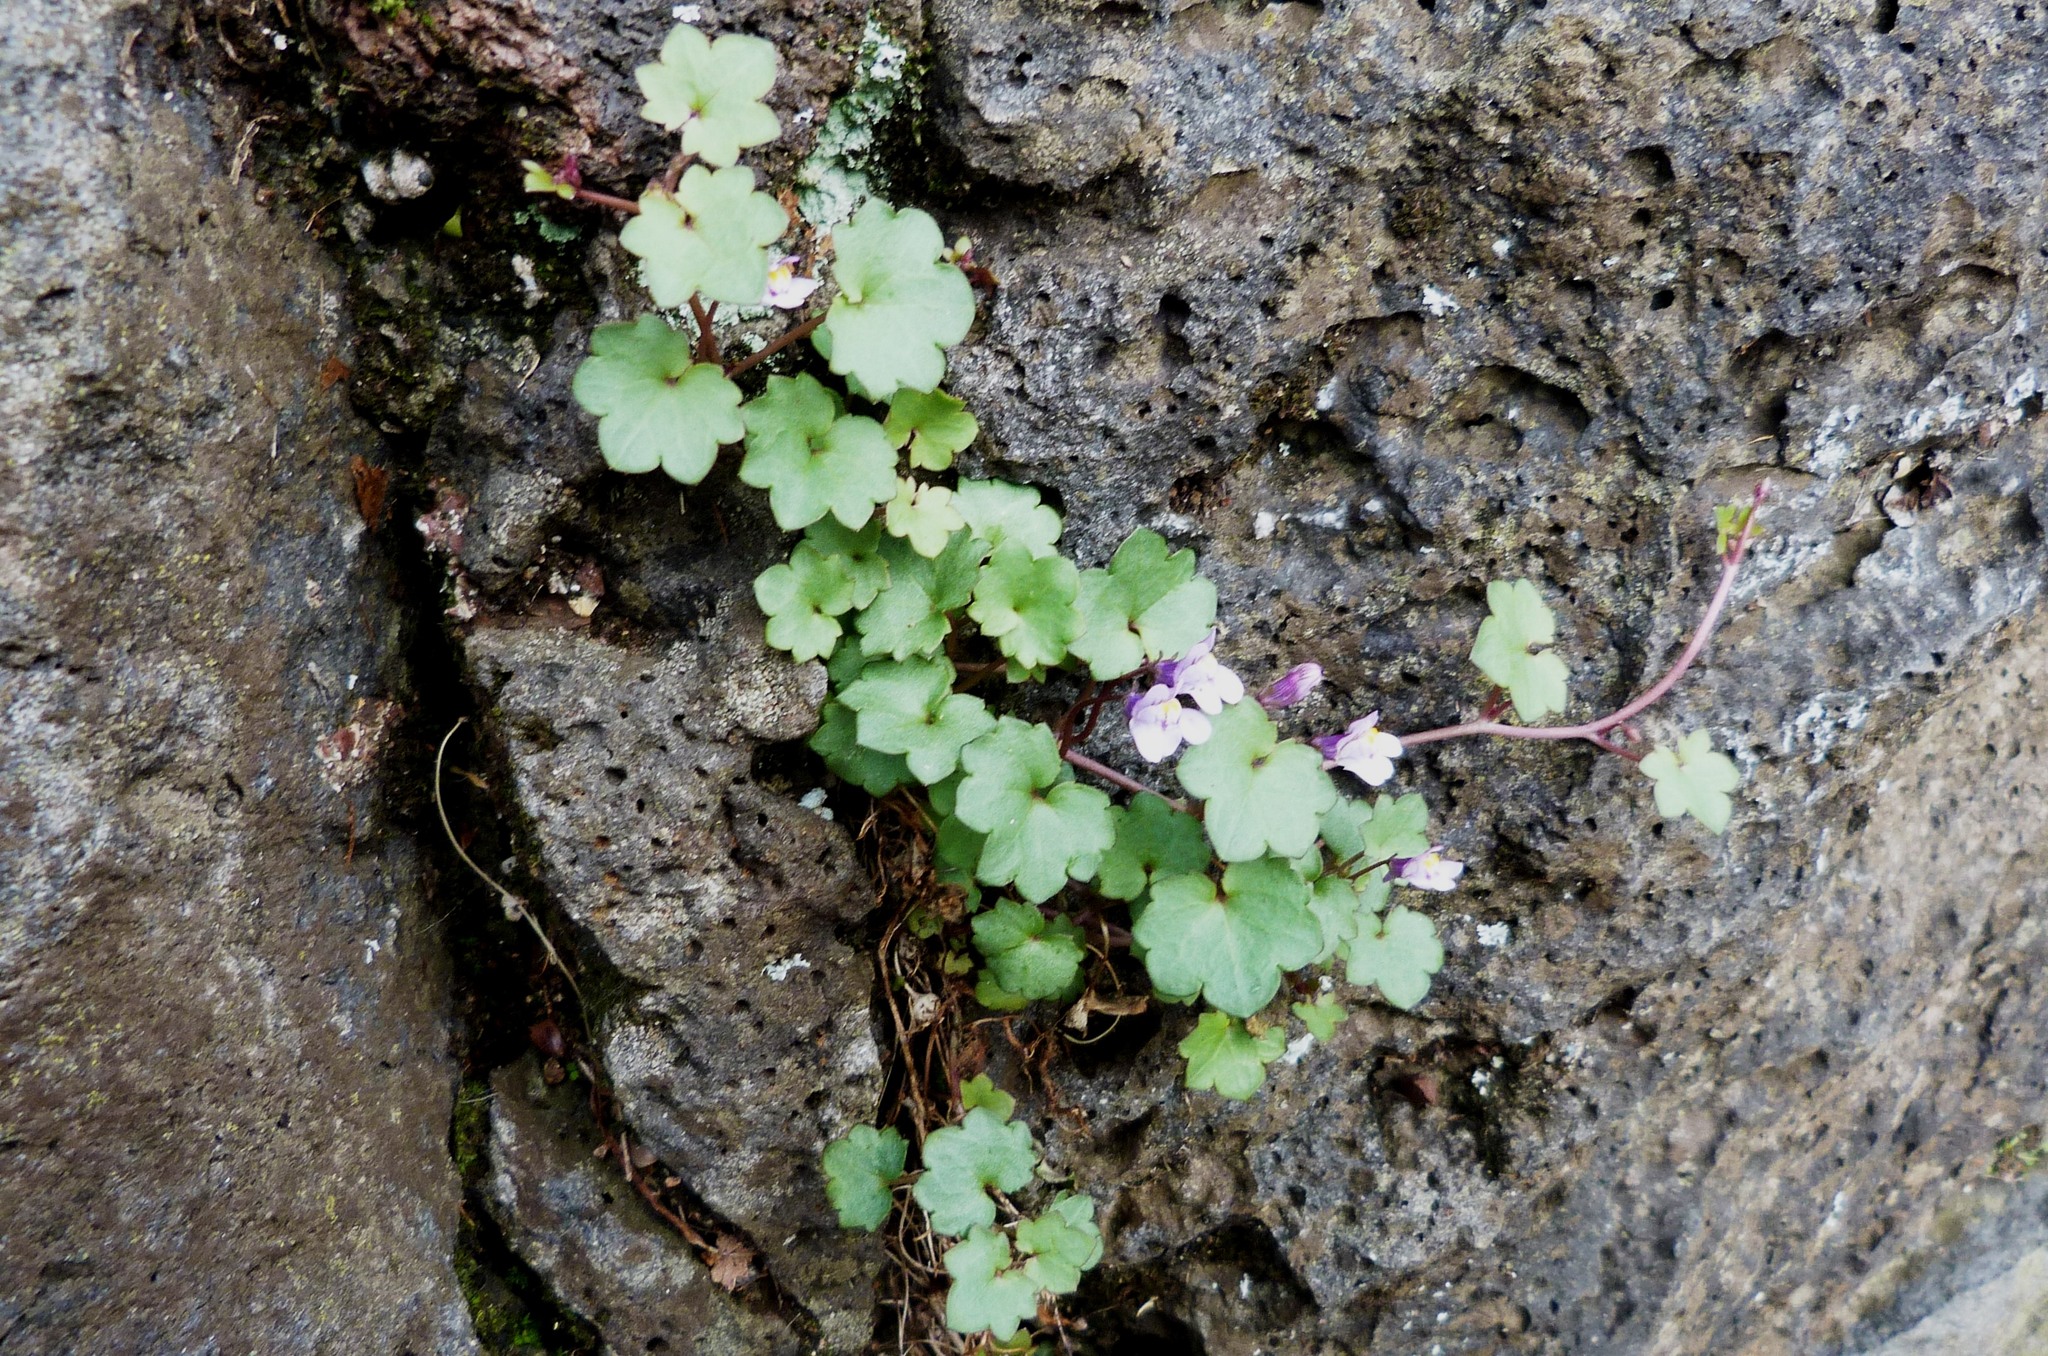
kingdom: Plantae
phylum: Tracheophyta
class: Magnoliopsida
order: Lamiales
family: Plantaginaceae
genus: Cymbalaria
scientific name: Cymbalaria muralis
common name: Ivy-leaved toadflax
